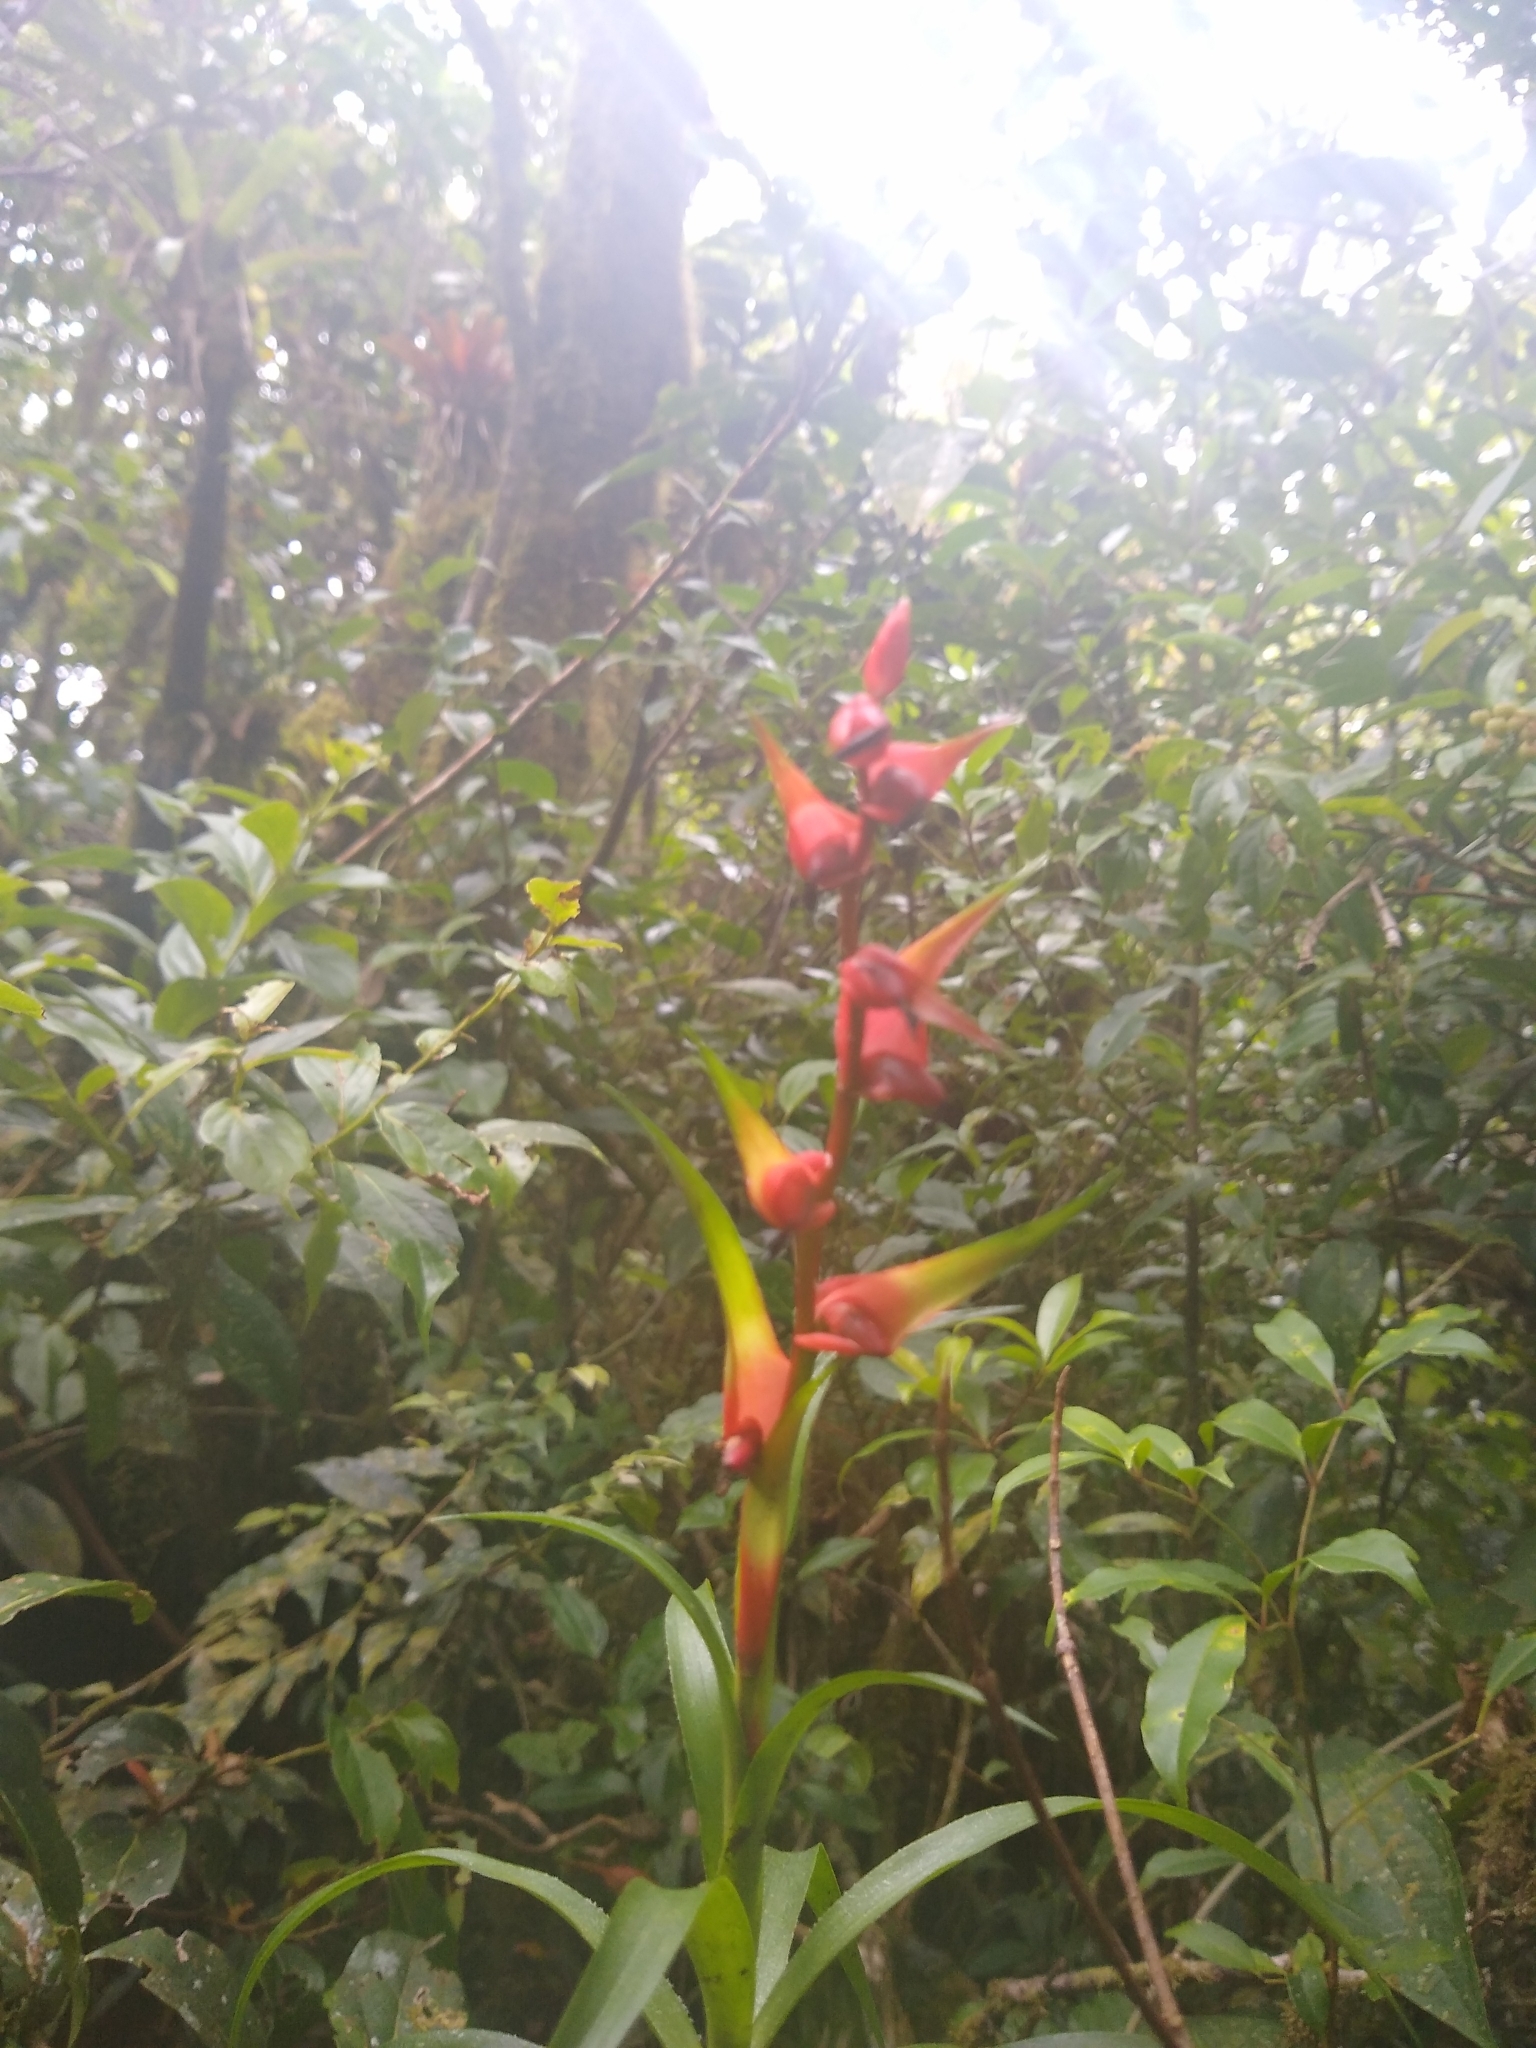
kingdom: Plantae
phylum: Tracheophyta
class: Liliopsida
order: Poales
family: Bromeliaceae
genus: Werauhia
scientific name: Werauhia insignis
